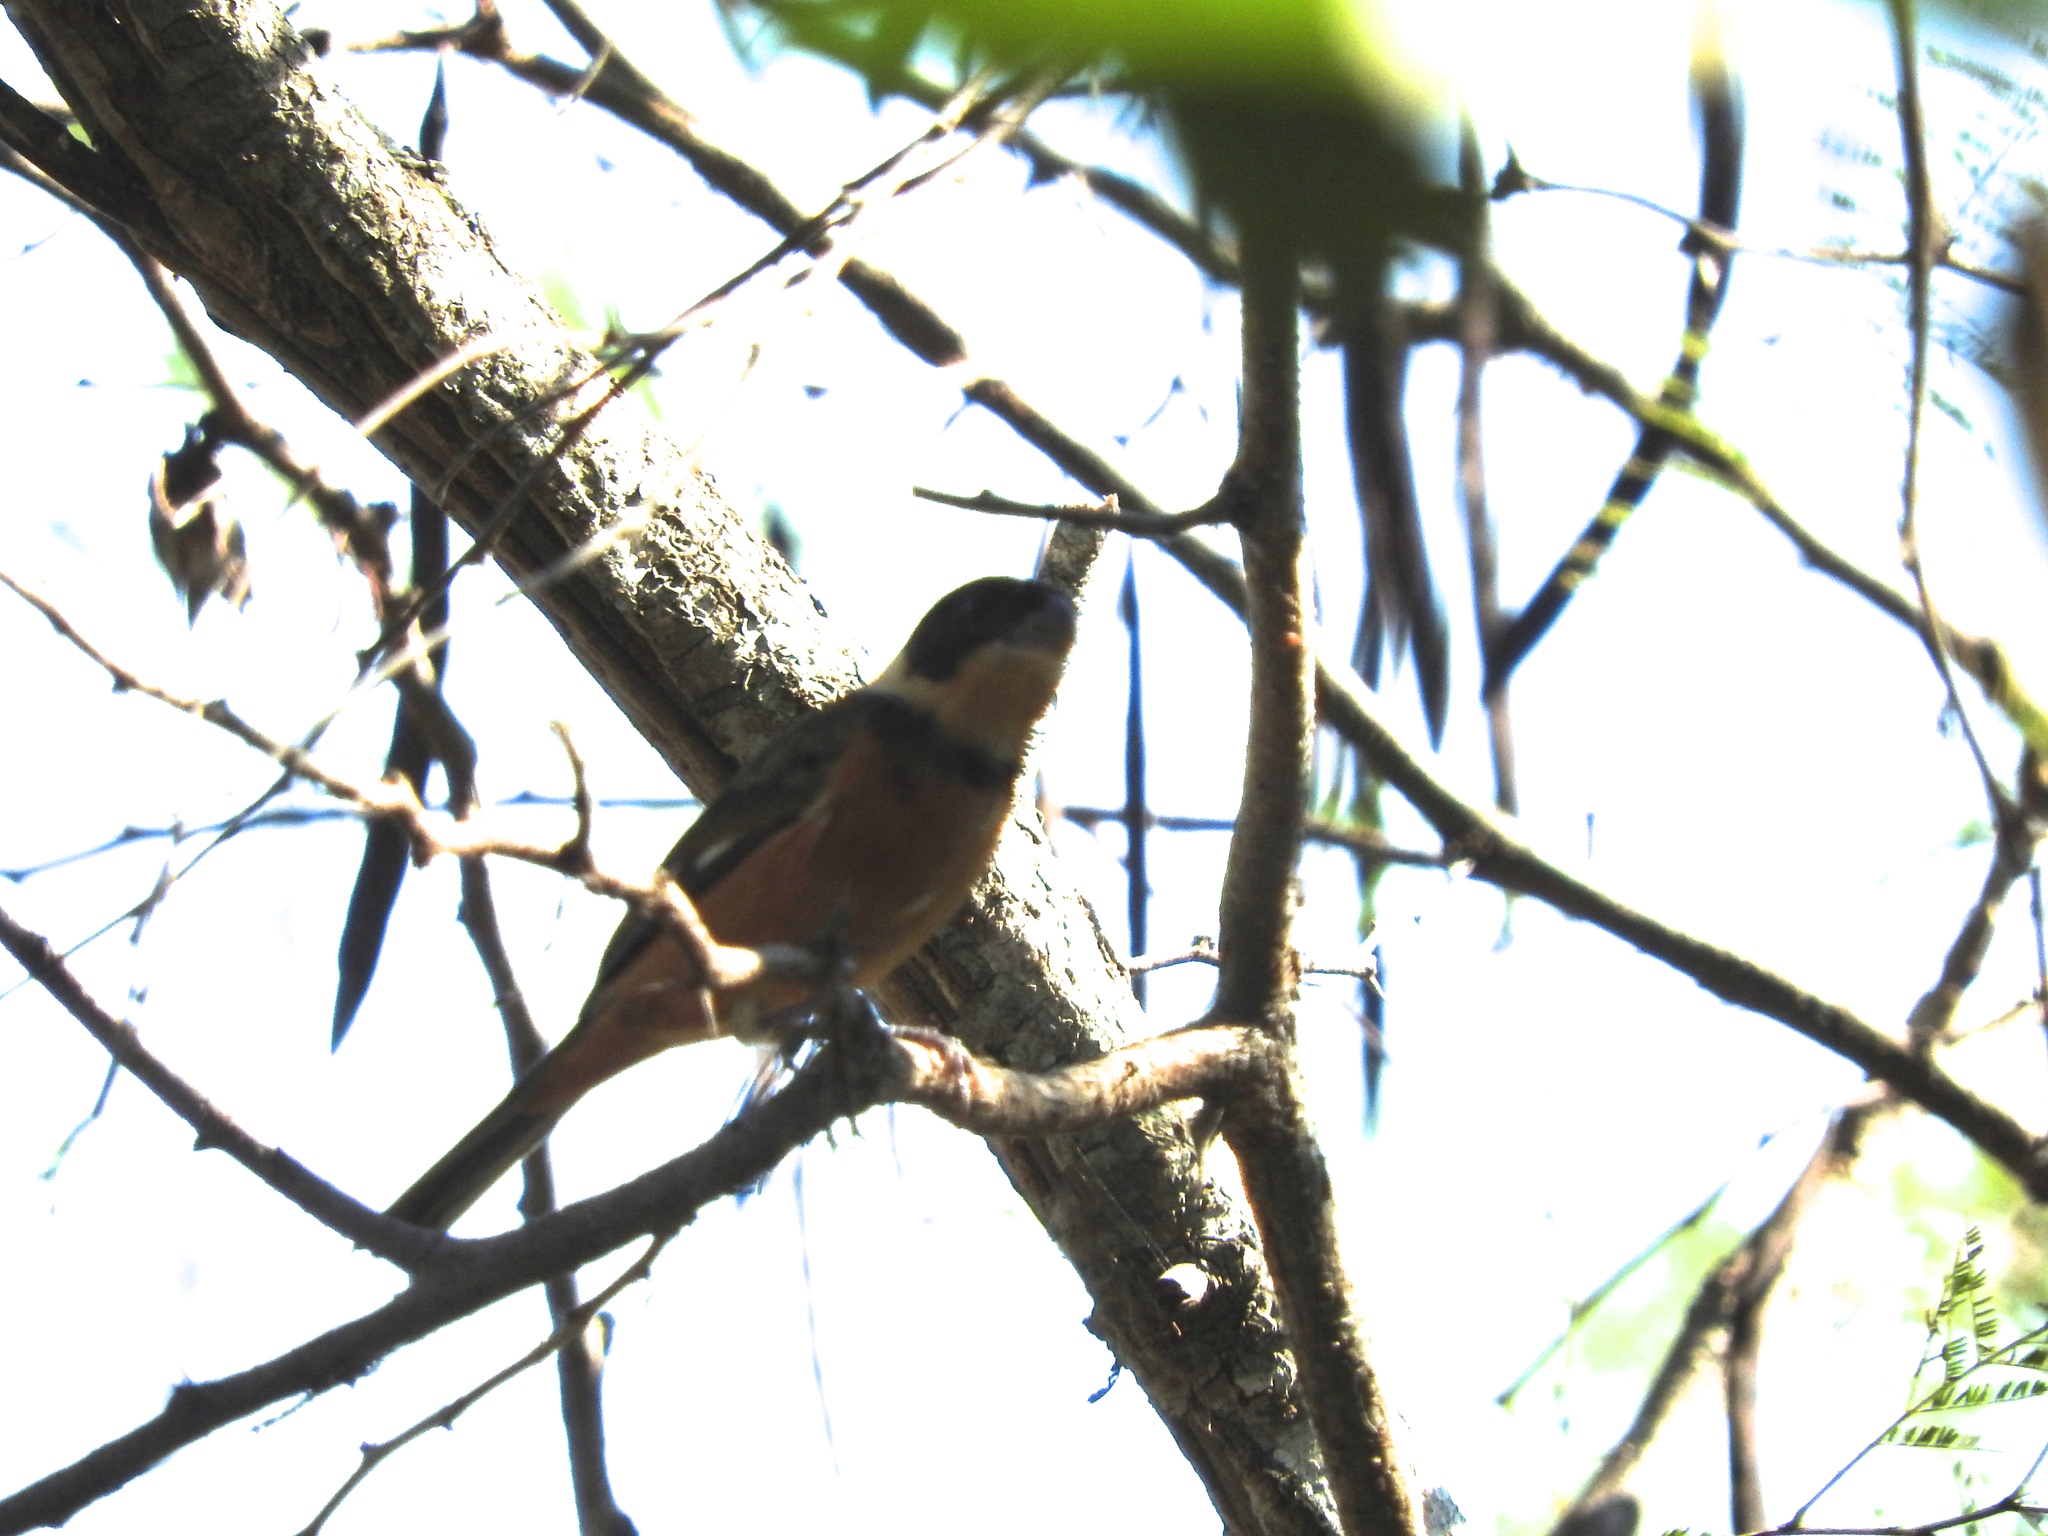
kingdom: Animalia
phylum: Chordata
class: Aves
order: Passeriformes
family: Thraupidae
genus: Sporophila
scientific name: Sporophila torqueola
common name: White-collared seedeater
